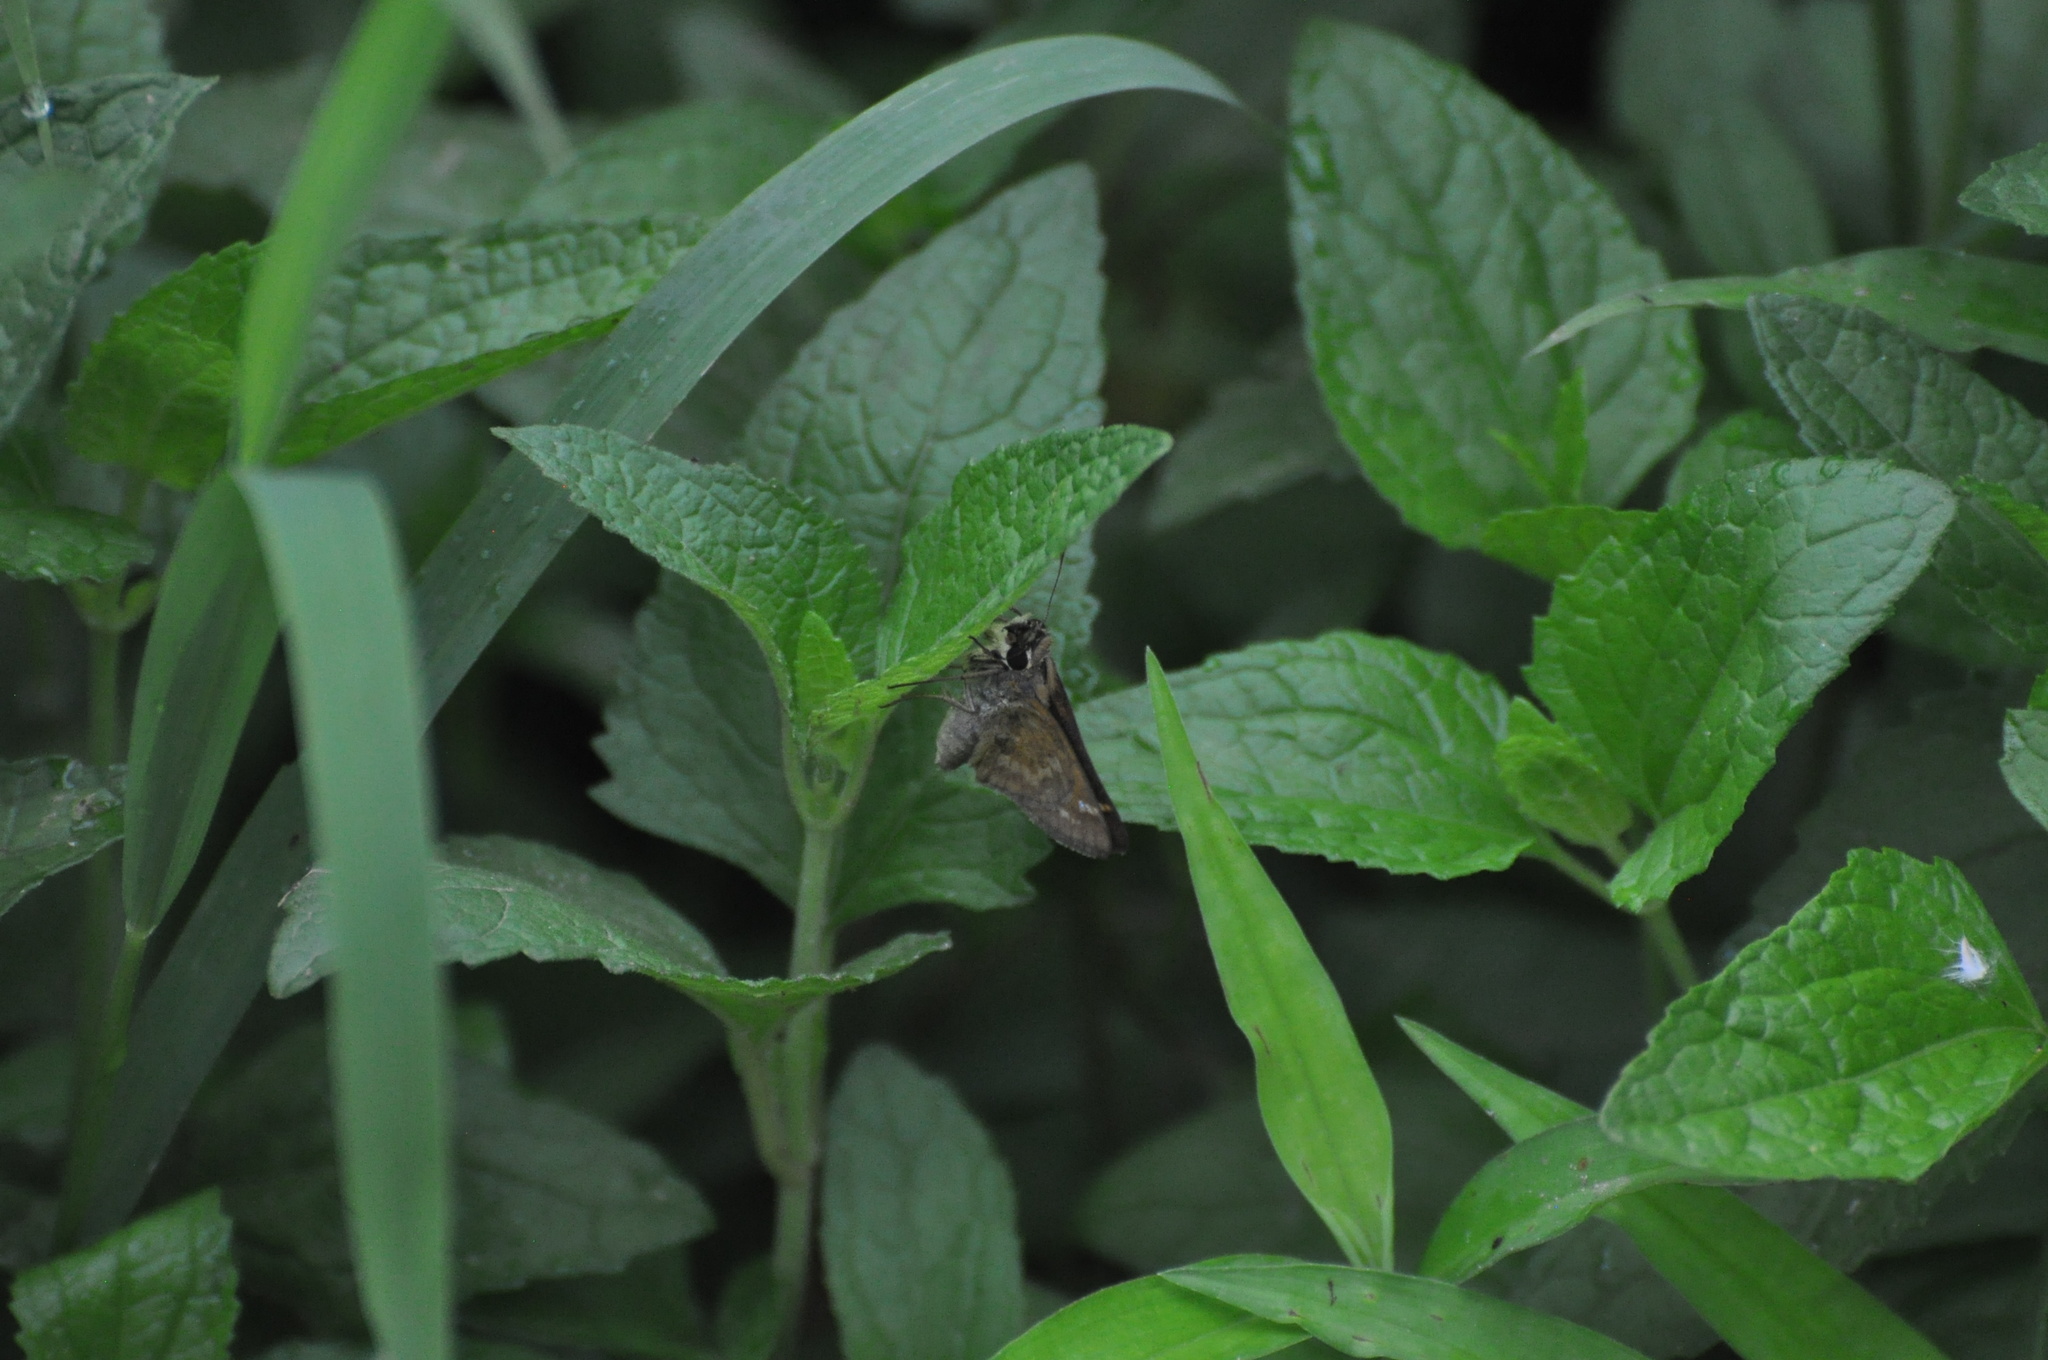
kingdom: Animalia
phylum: Arthropoda
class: Insecta
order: Lepidoptera
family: Hesperiidae
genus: Lerema
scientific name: Lerema accius
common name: Clouded skipper
